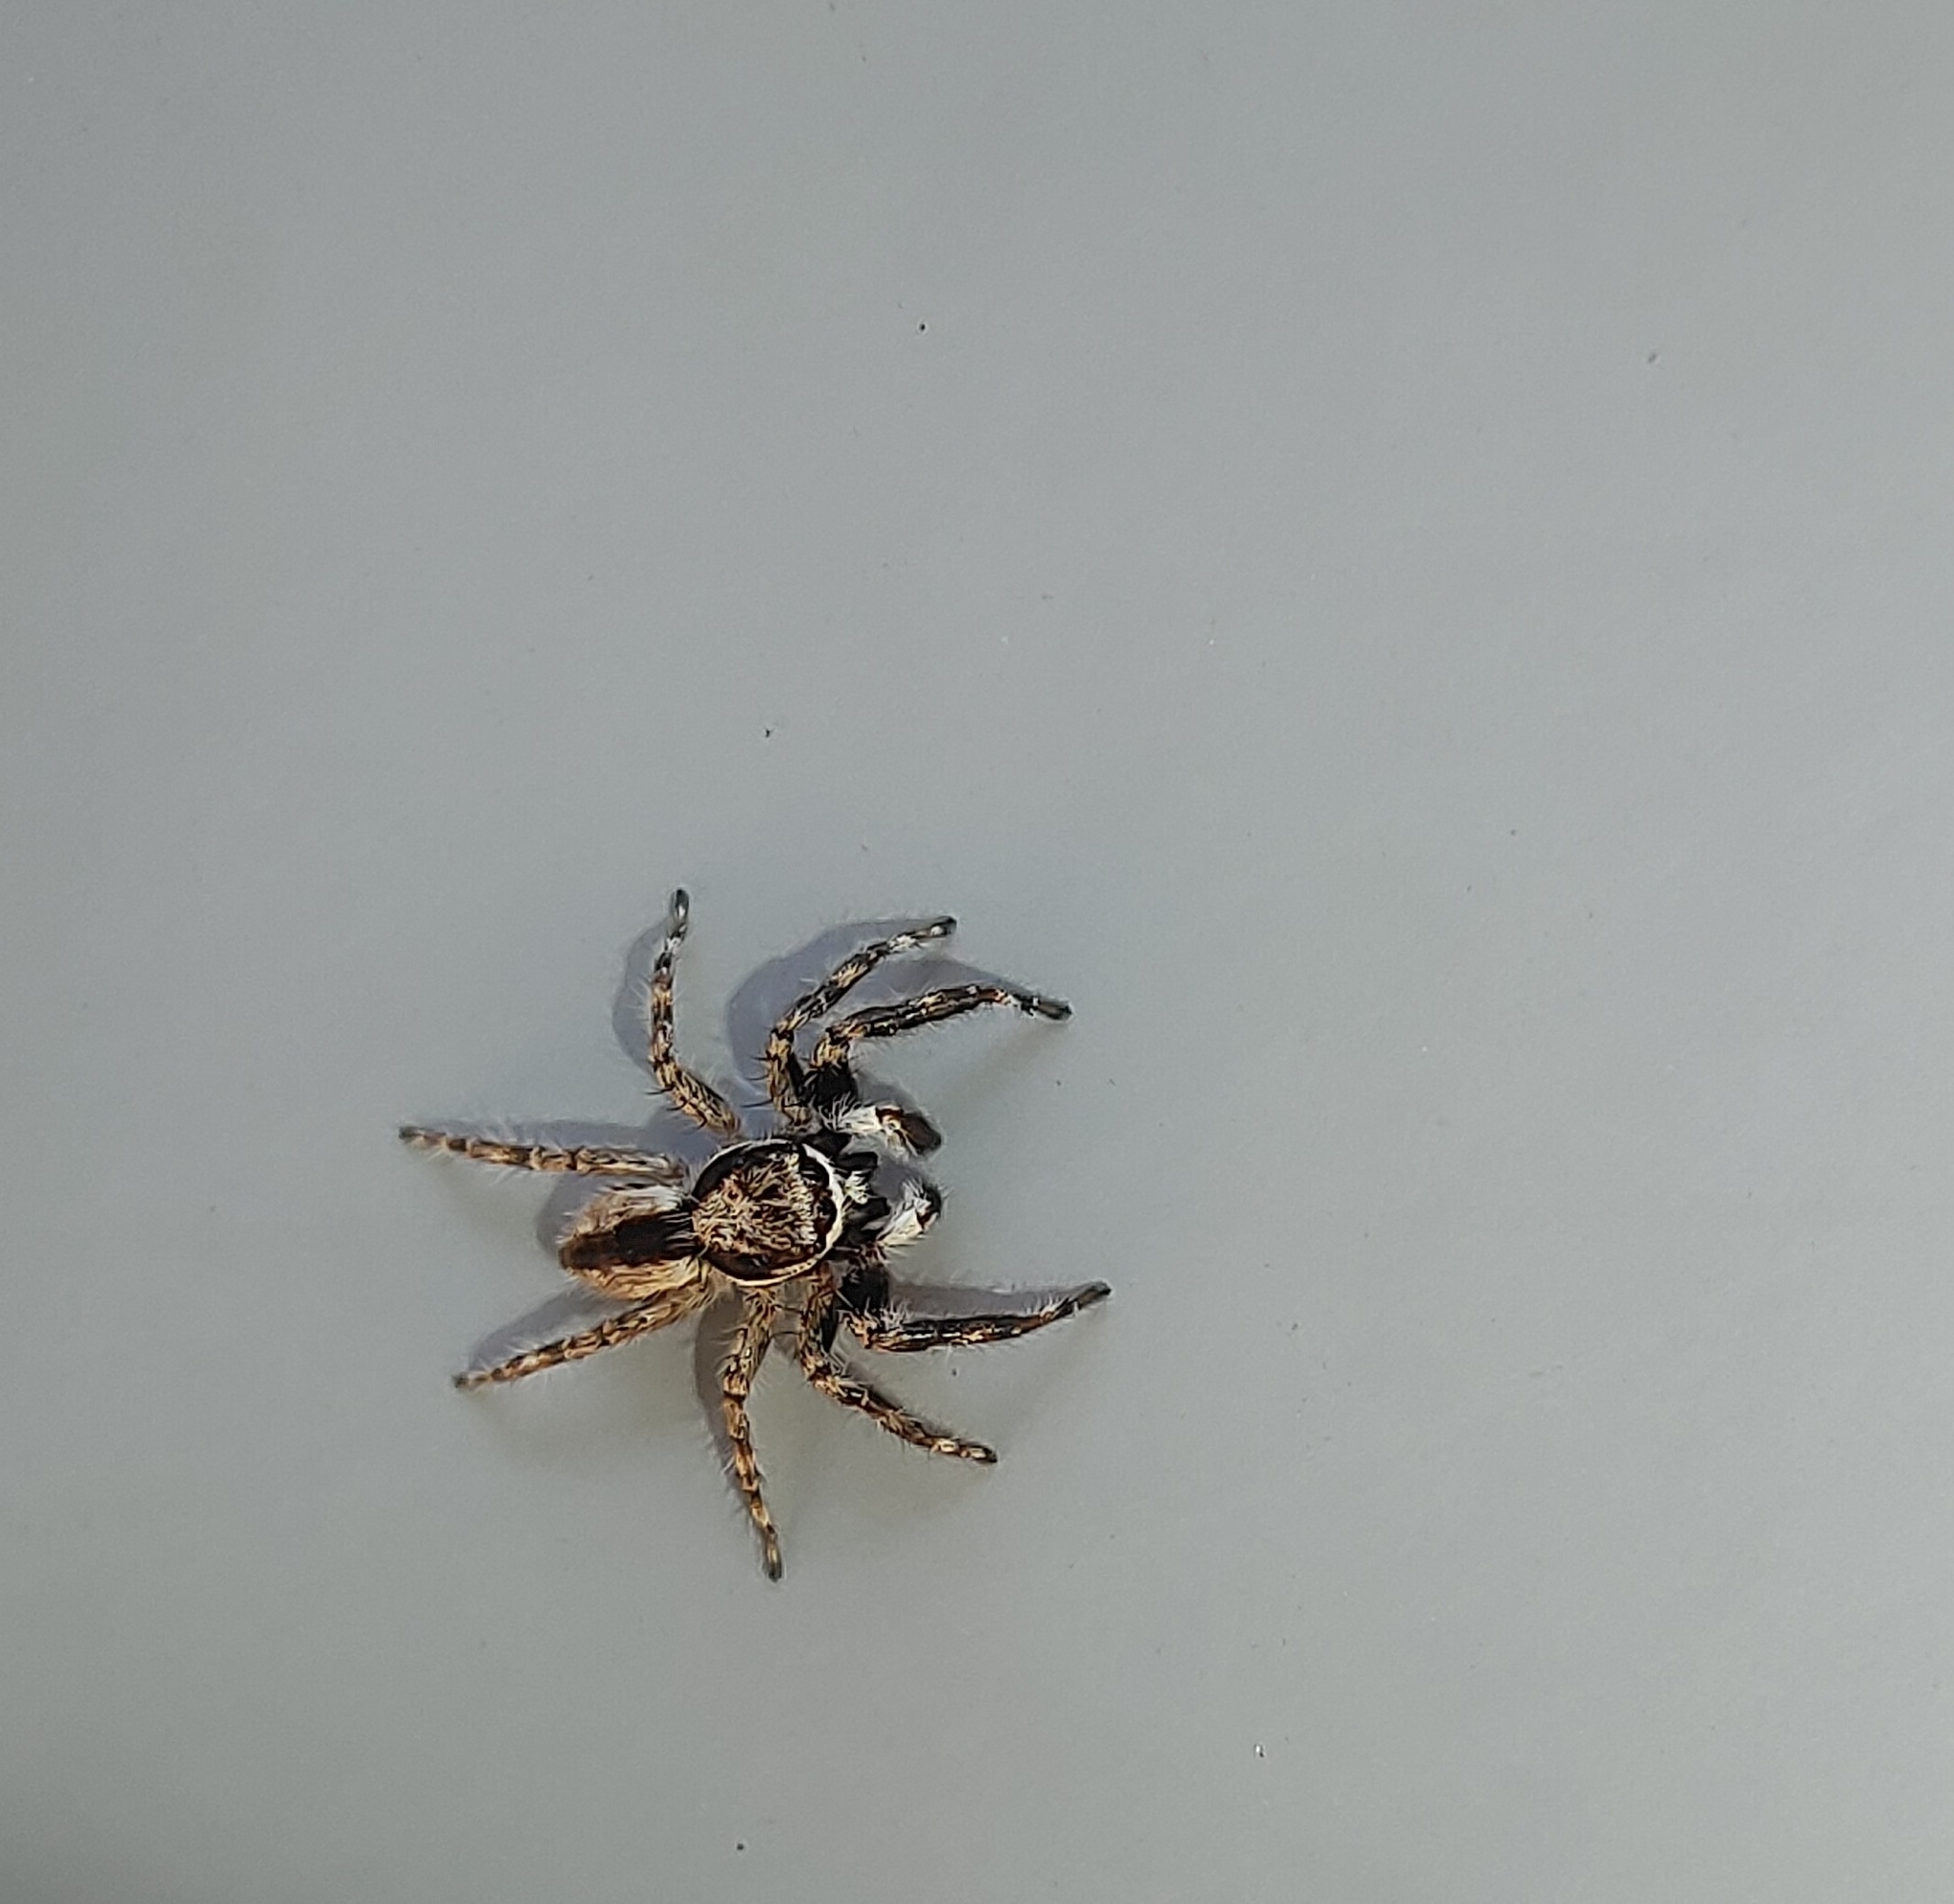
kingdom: Animalia
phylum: Arthropoda
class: Arachnida
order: Araneae
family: Salticidae
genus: Menemerus
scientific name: Menemerus bivittatus
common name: Gray wall jumper
